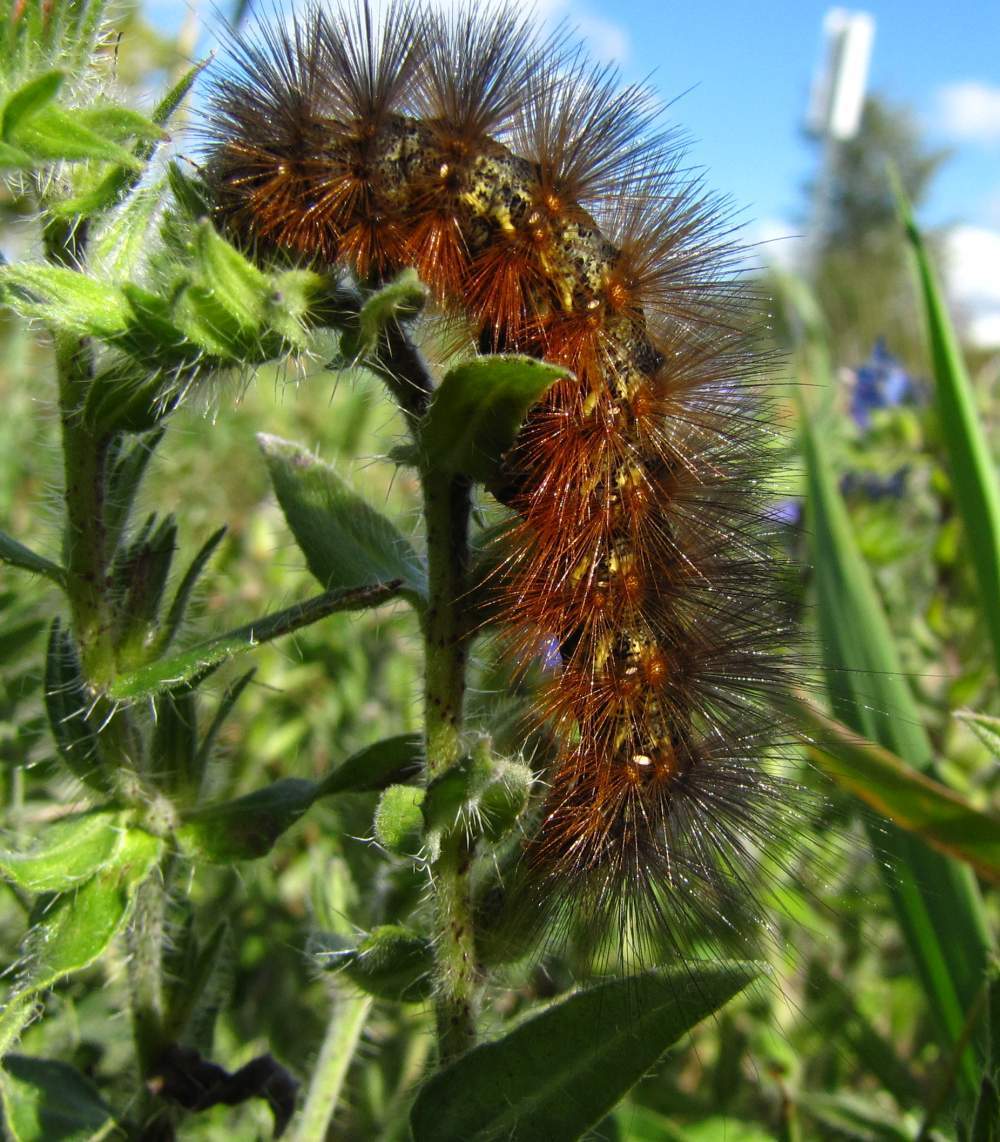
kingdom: Animalia
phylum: Arthropoda
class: Insecta
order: Lepidoptera
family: Erebidae
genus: Estigmene
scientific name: Estigmene acrea
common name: Salt marsh moth
